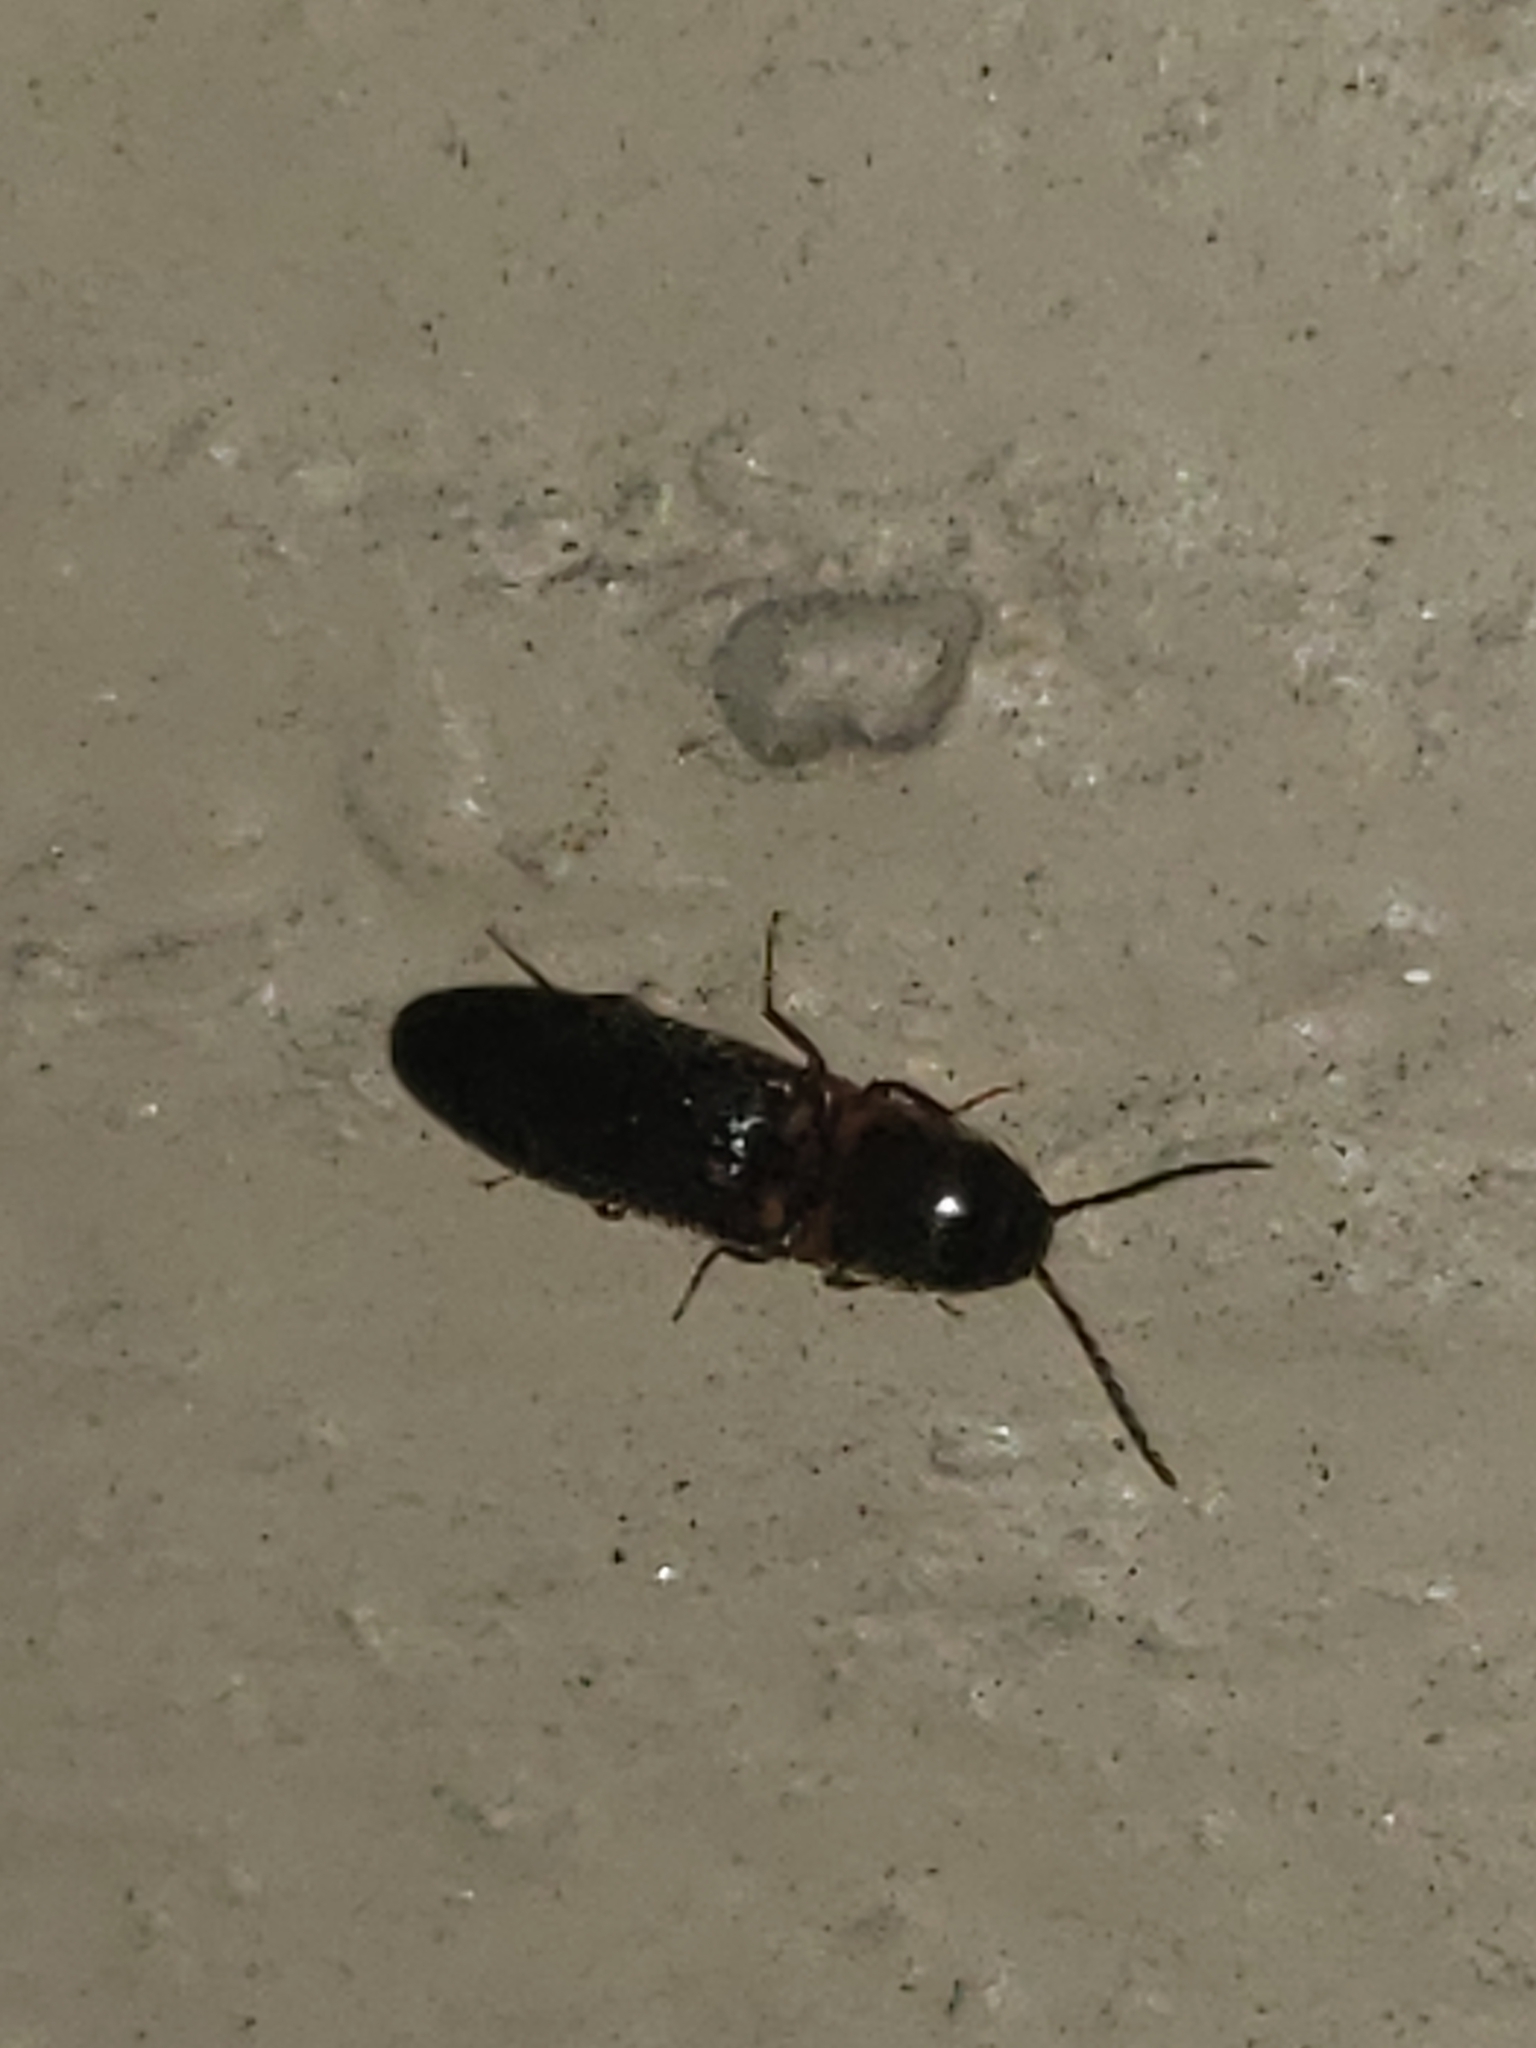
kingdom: Animalia
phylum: Arthropoda
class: Insecta
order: Coleoptera
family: Elateridae
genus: Megapenthes
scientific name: Megapenthes
